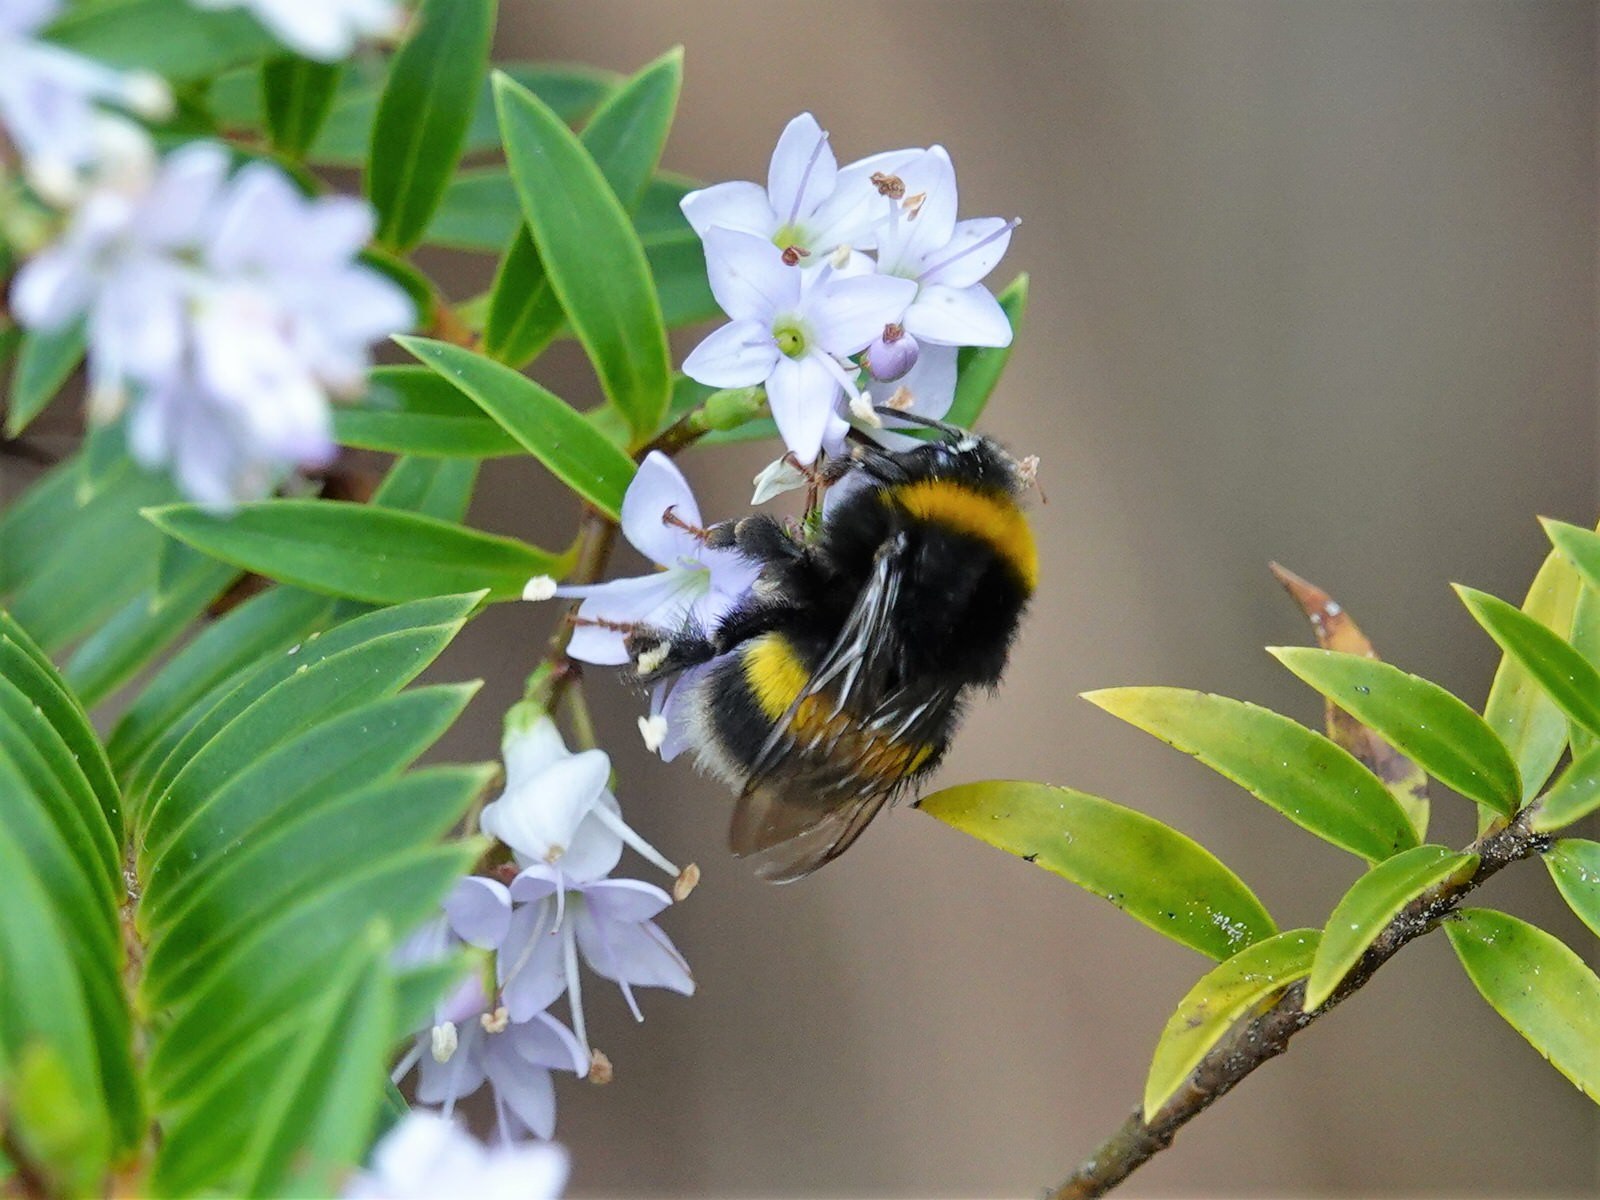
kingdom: Animalia
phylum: Arthropoda
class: Insecta
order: Hymenoptera
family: Apidae
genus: Bombus
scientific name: Bombus terrestris
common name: Buff-tailed bumblebee
